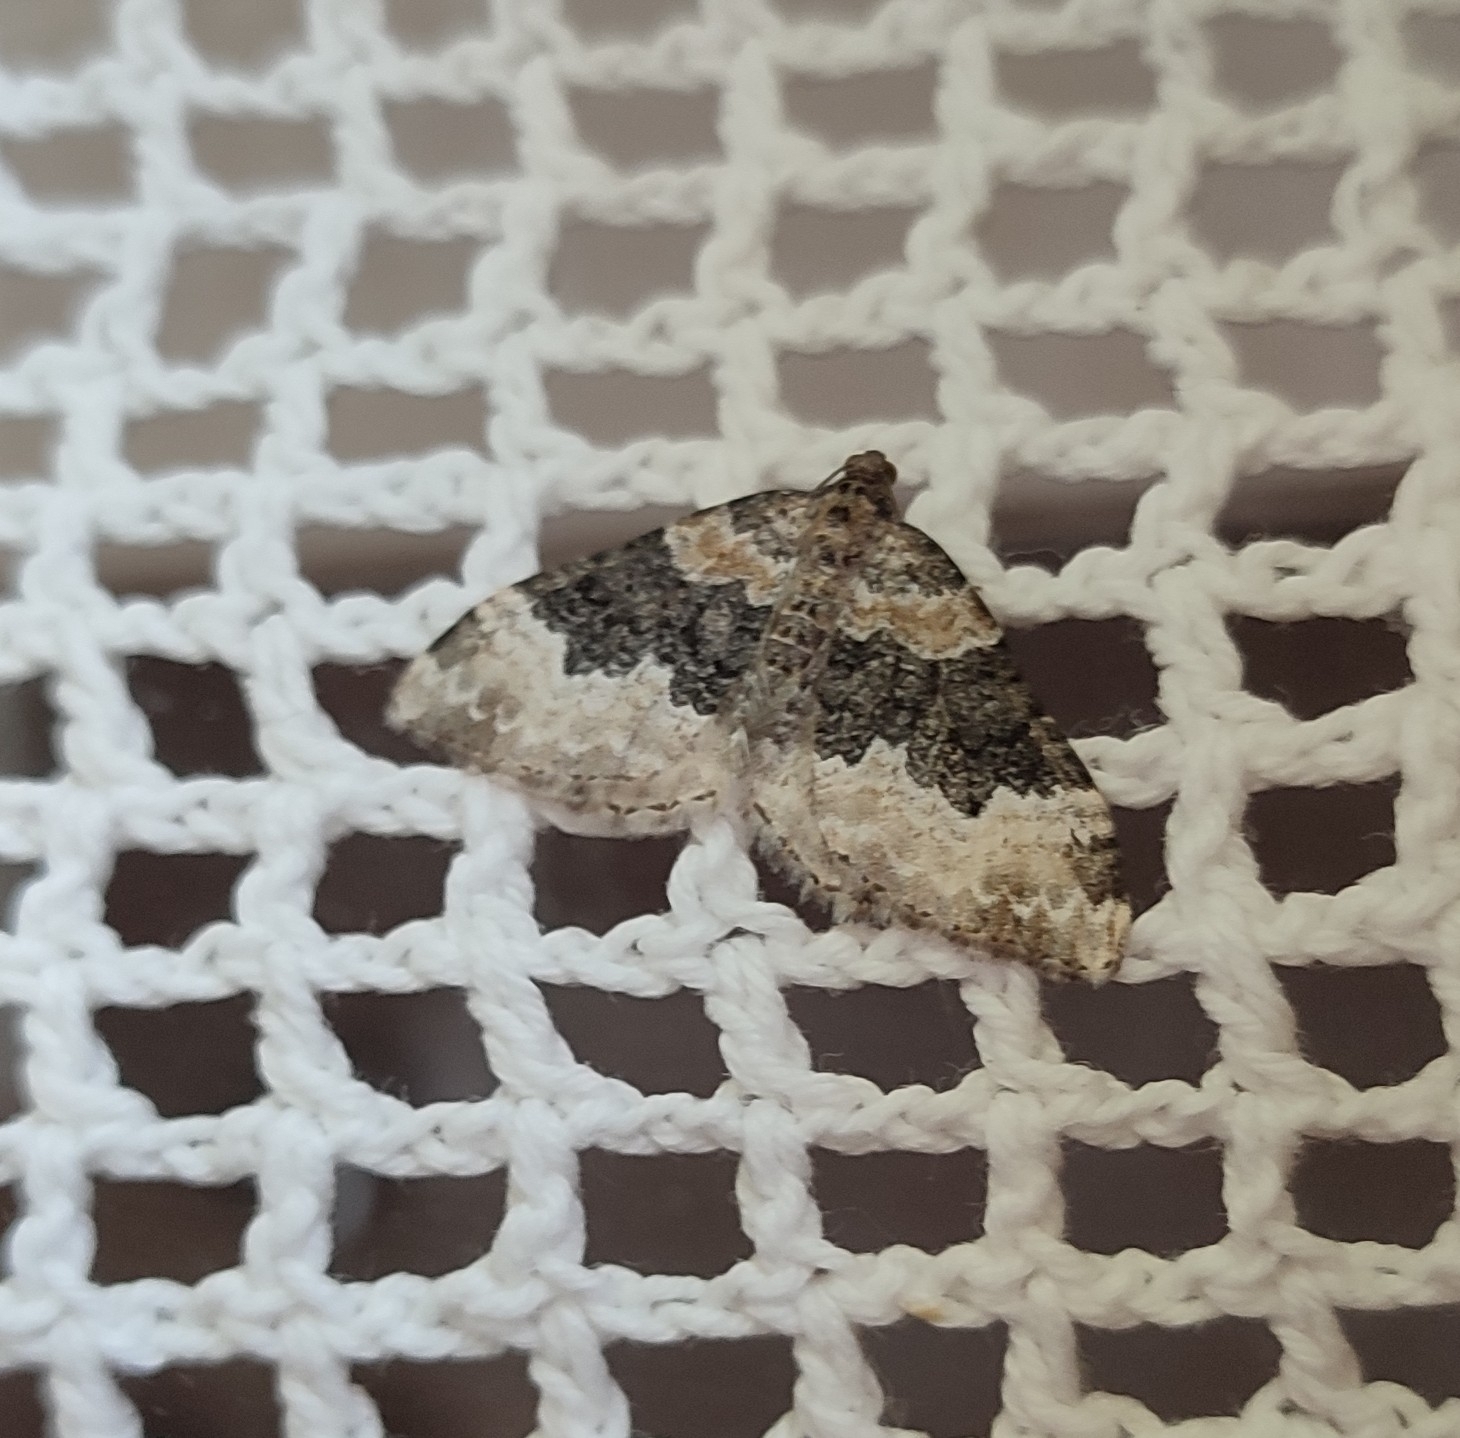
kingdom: Animalia
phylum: Arthropoda
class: Insecta
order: Lepidoptera
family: Geometridae
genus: Epirrhoe
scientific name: Epirrhoe galiata
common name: Galium carpet
